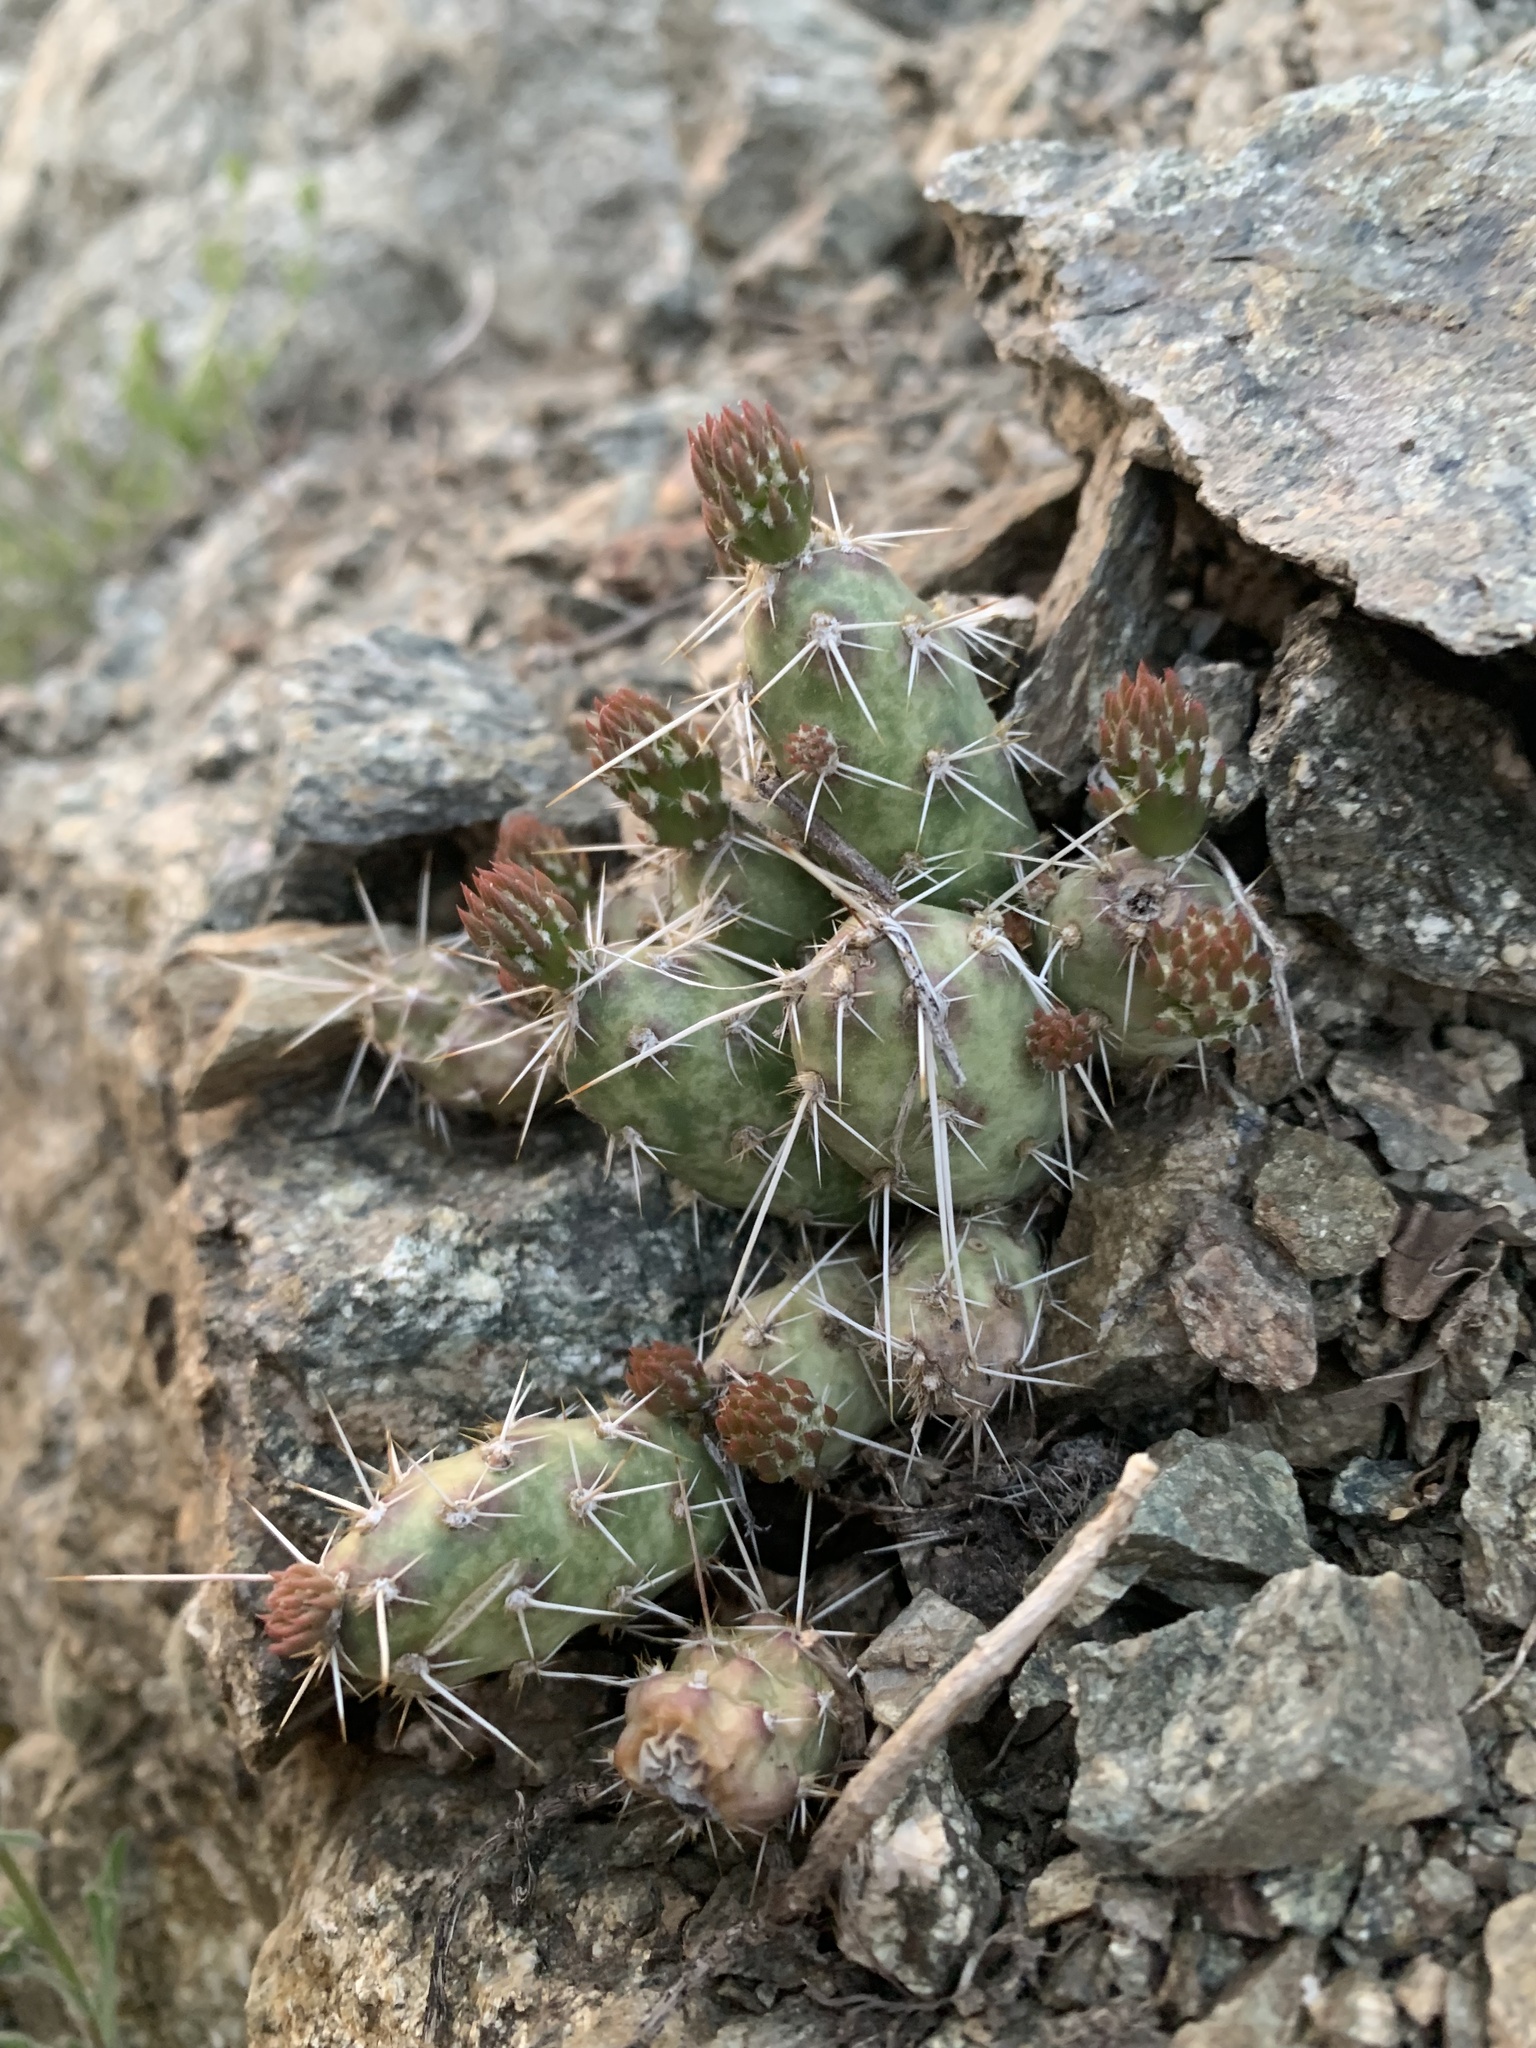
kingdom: Plantae
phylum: Tracheophyta
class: Magnoliopsida
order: Caryophyllales
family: Cactaceae
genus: Opuntia
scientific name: Opuntia fragilis
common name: Brittle cactus
